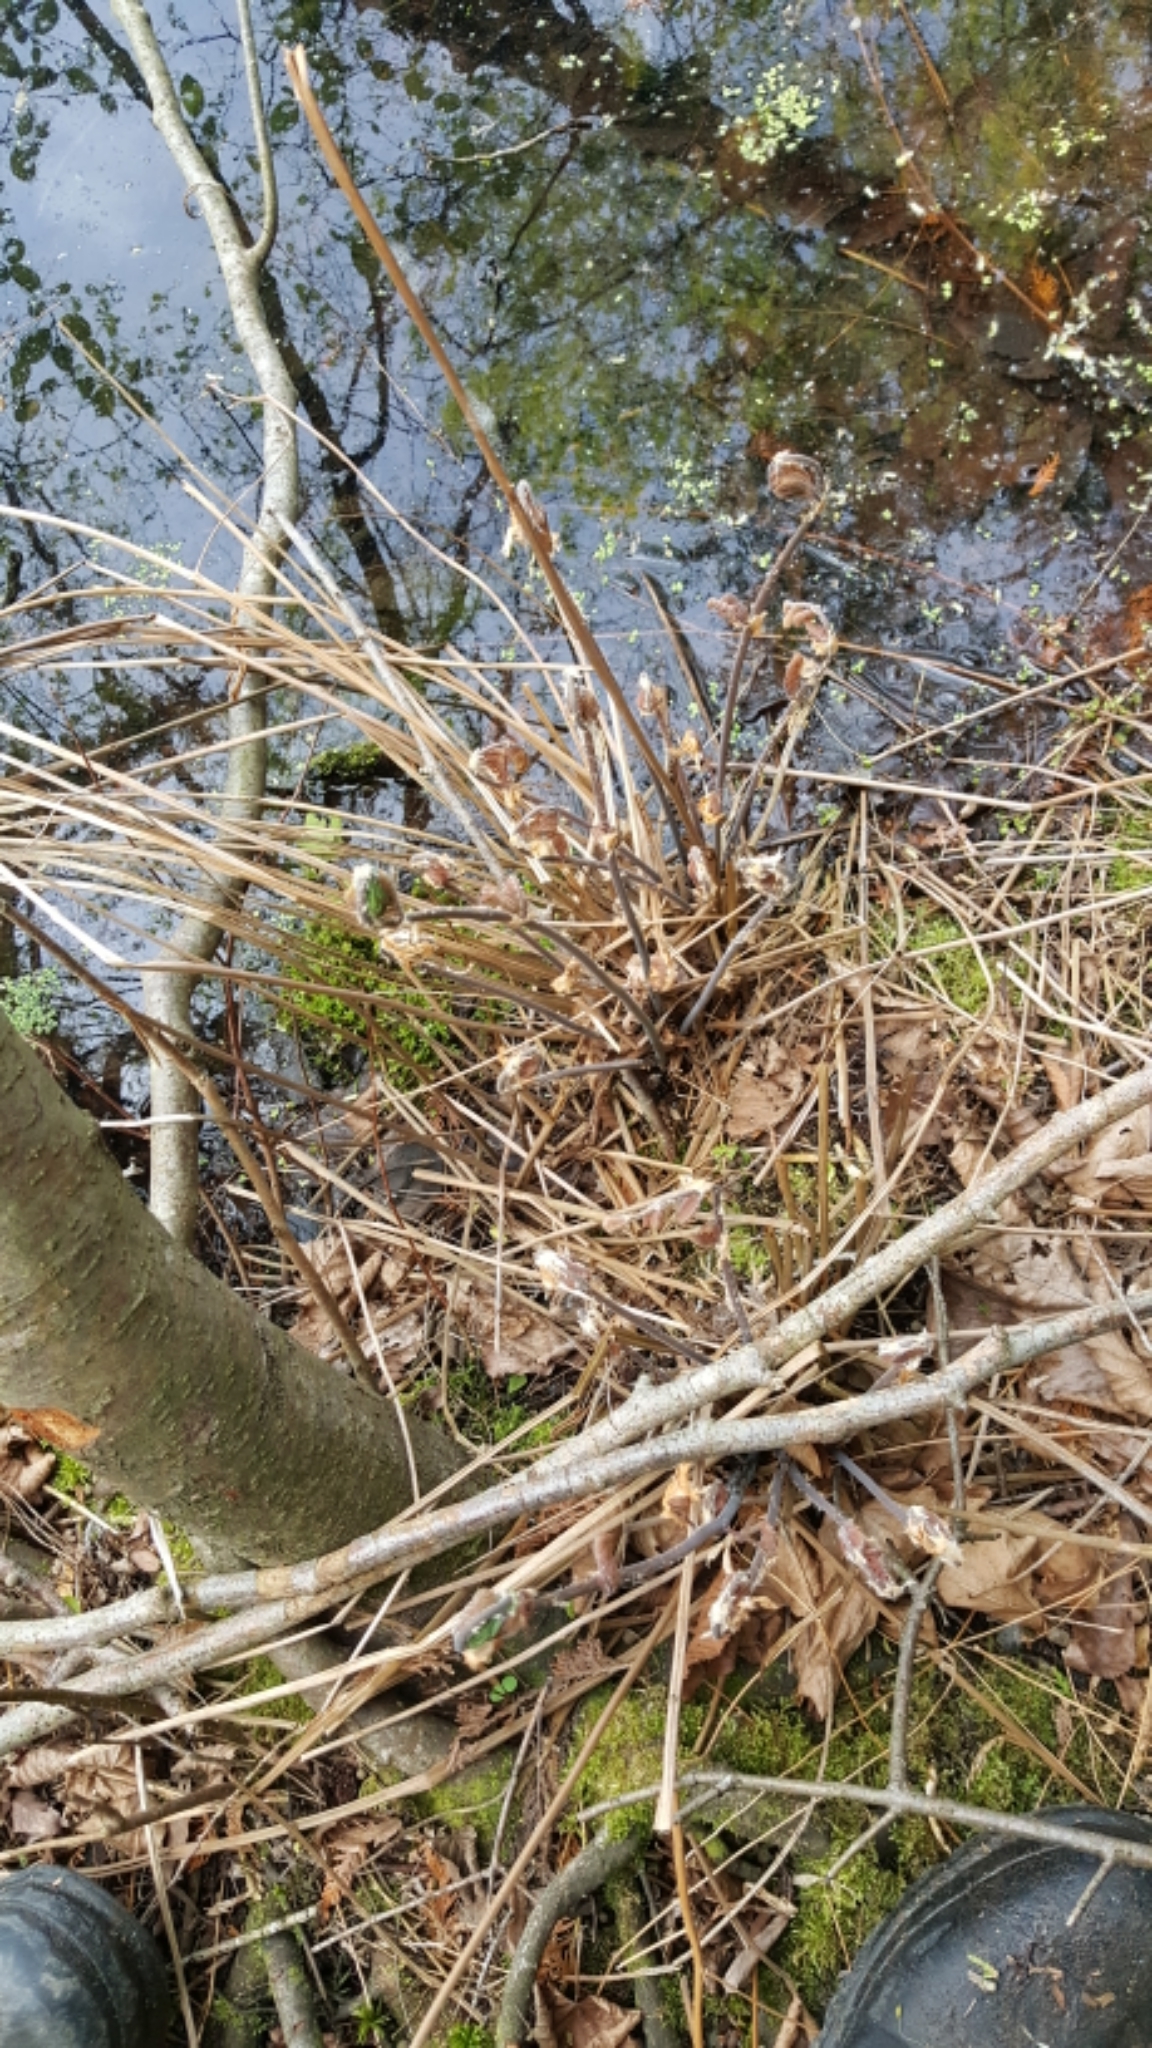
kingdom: Plantae
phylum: Tracheophyta
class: Polypodiopsida
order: Osmundales
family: Osmundaceae
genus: Osmunda
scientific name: Osmunda spectabilis
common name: American royal fern
